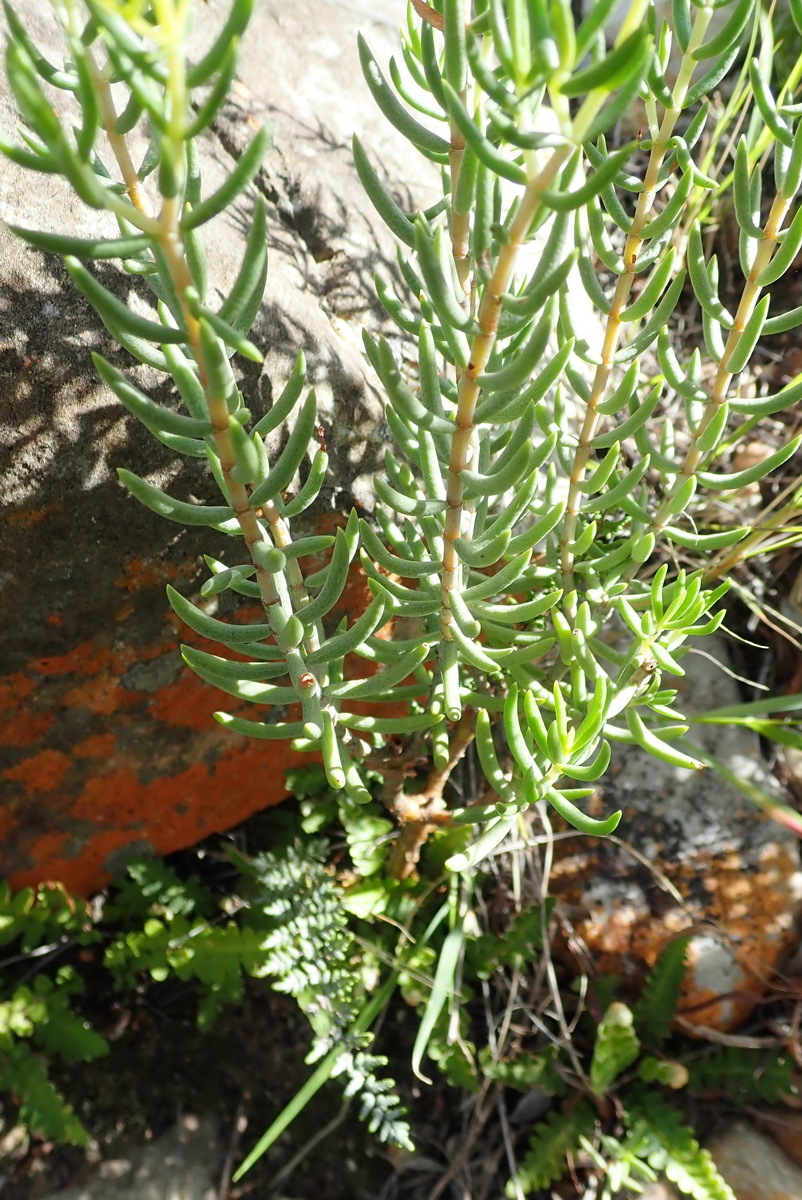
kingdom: Plantae
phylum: Tracheophyta
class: Magnoliopsida
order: Saxifragales
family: Crassulaceae
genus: Crassula
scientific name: Crassula tetragona
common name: Pygmyweed
